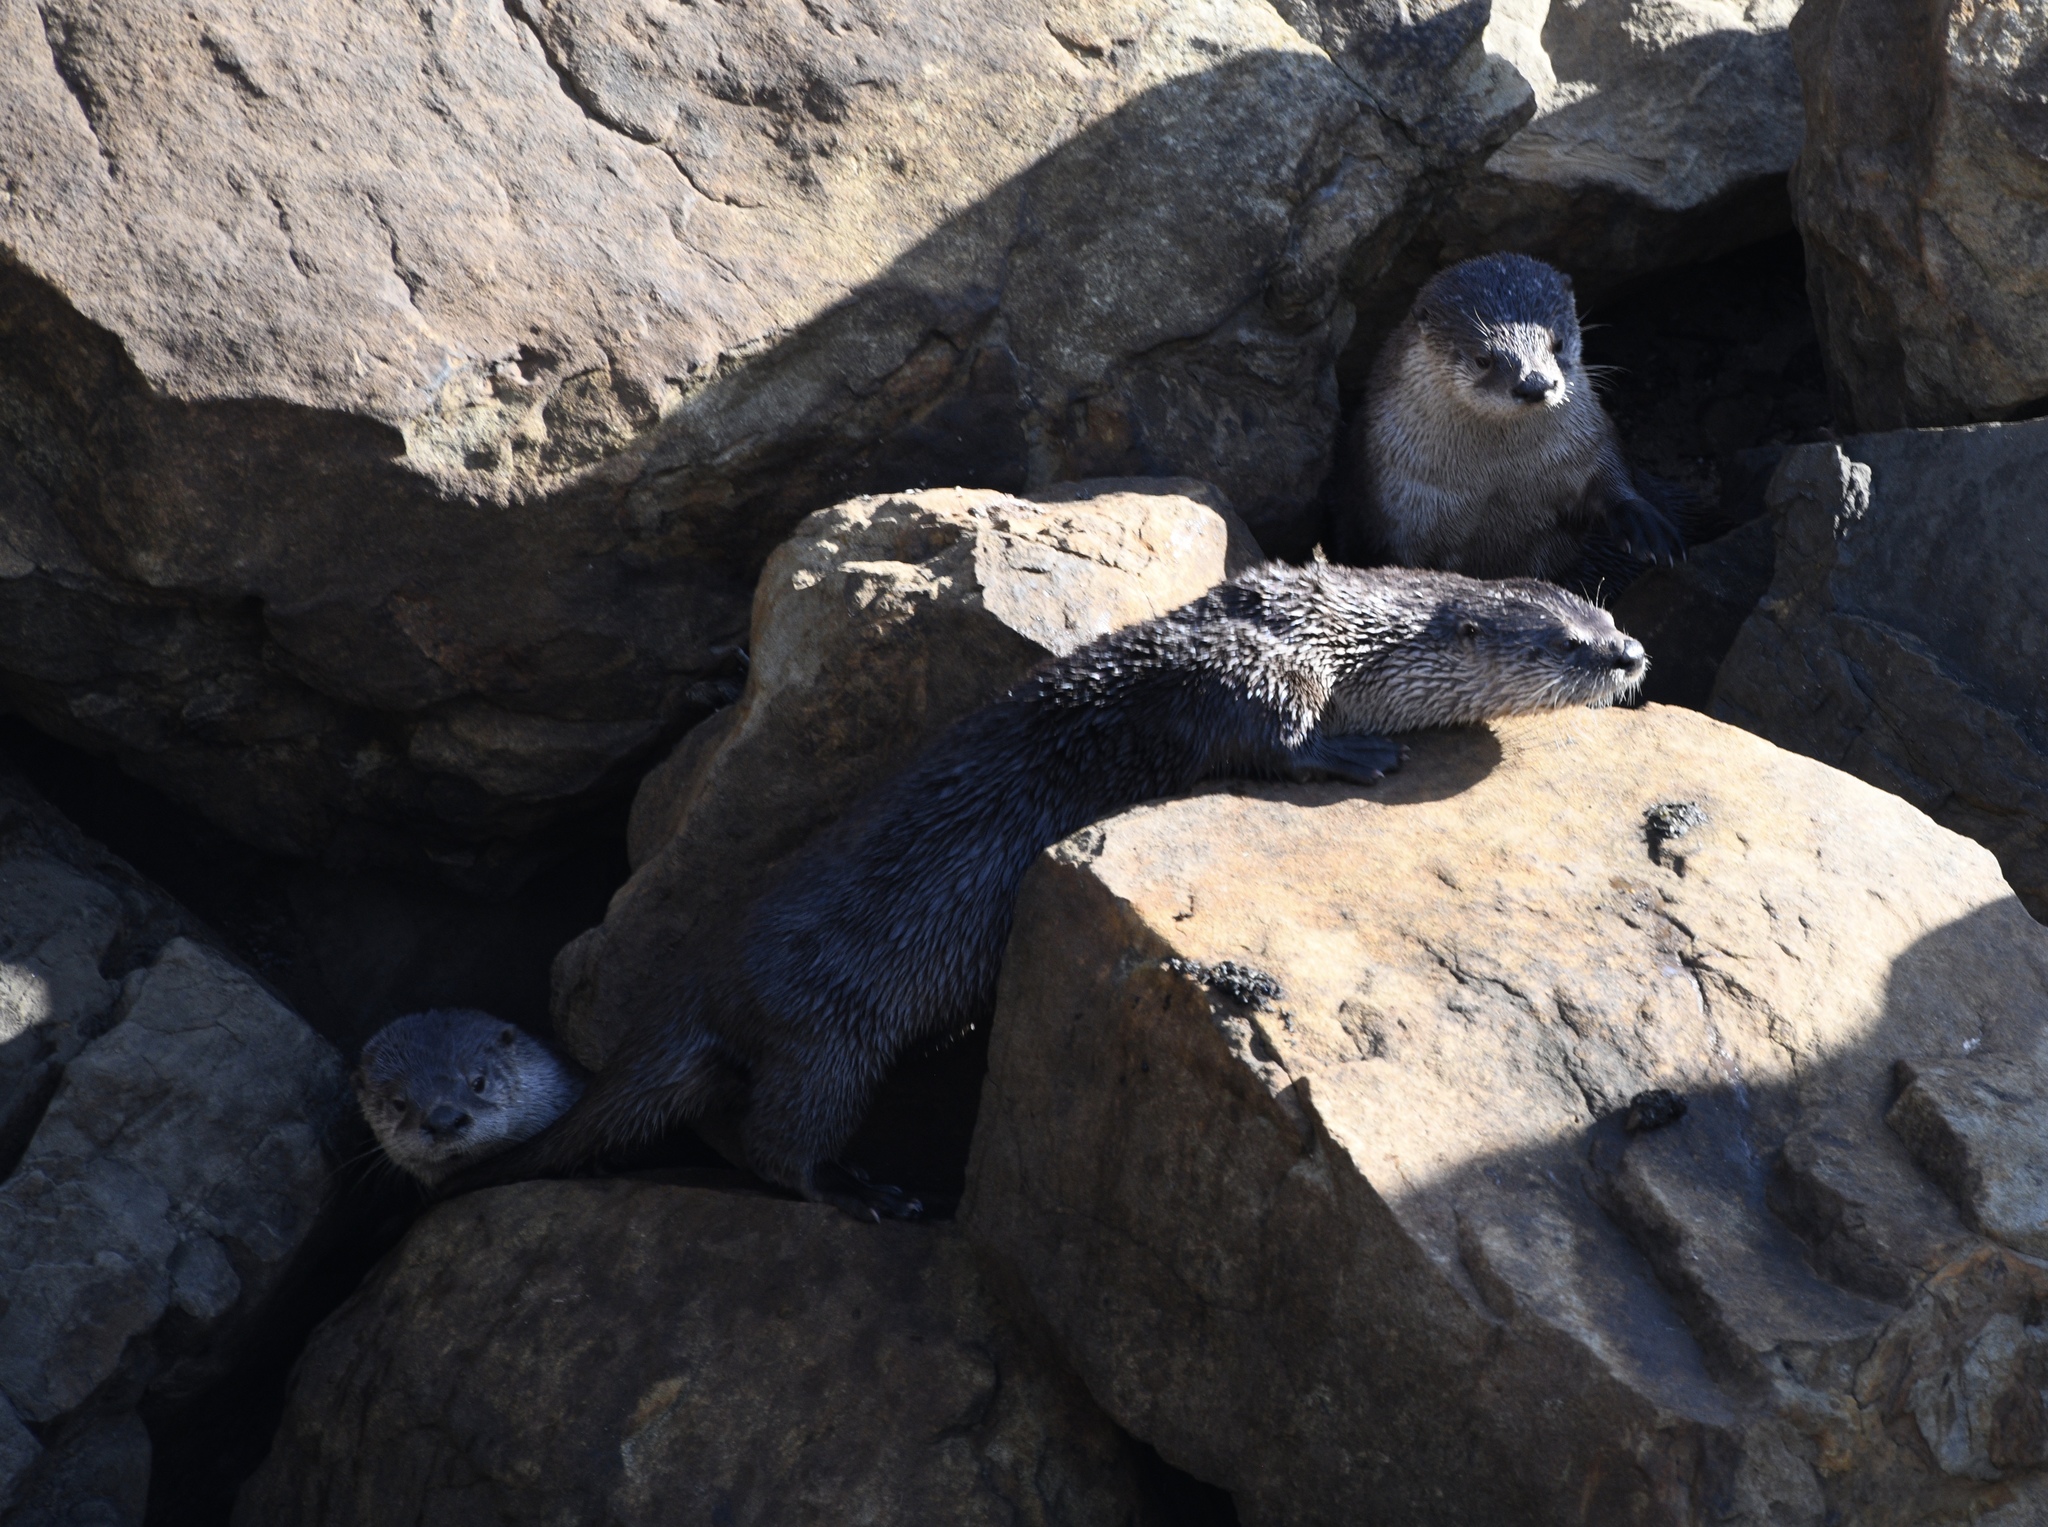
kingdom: Animalia
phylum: Chordata
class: Mammalia
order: Carnivora
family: Mustelidae
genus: Lontra
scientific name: Lontra canadensis
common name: North american river otter
